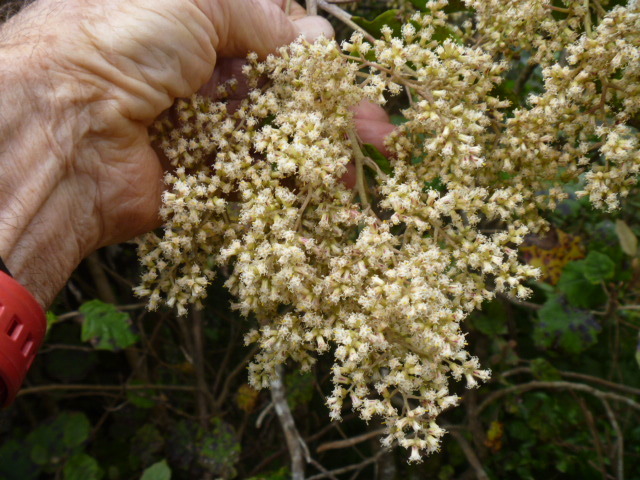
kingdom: Plantae
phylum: Tracheophyta
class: Magnoliopsida
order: Asterales
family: Asteraceae
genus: Brachyglottis
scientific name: Brachyglottis repanda
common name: Hedge ragwort
